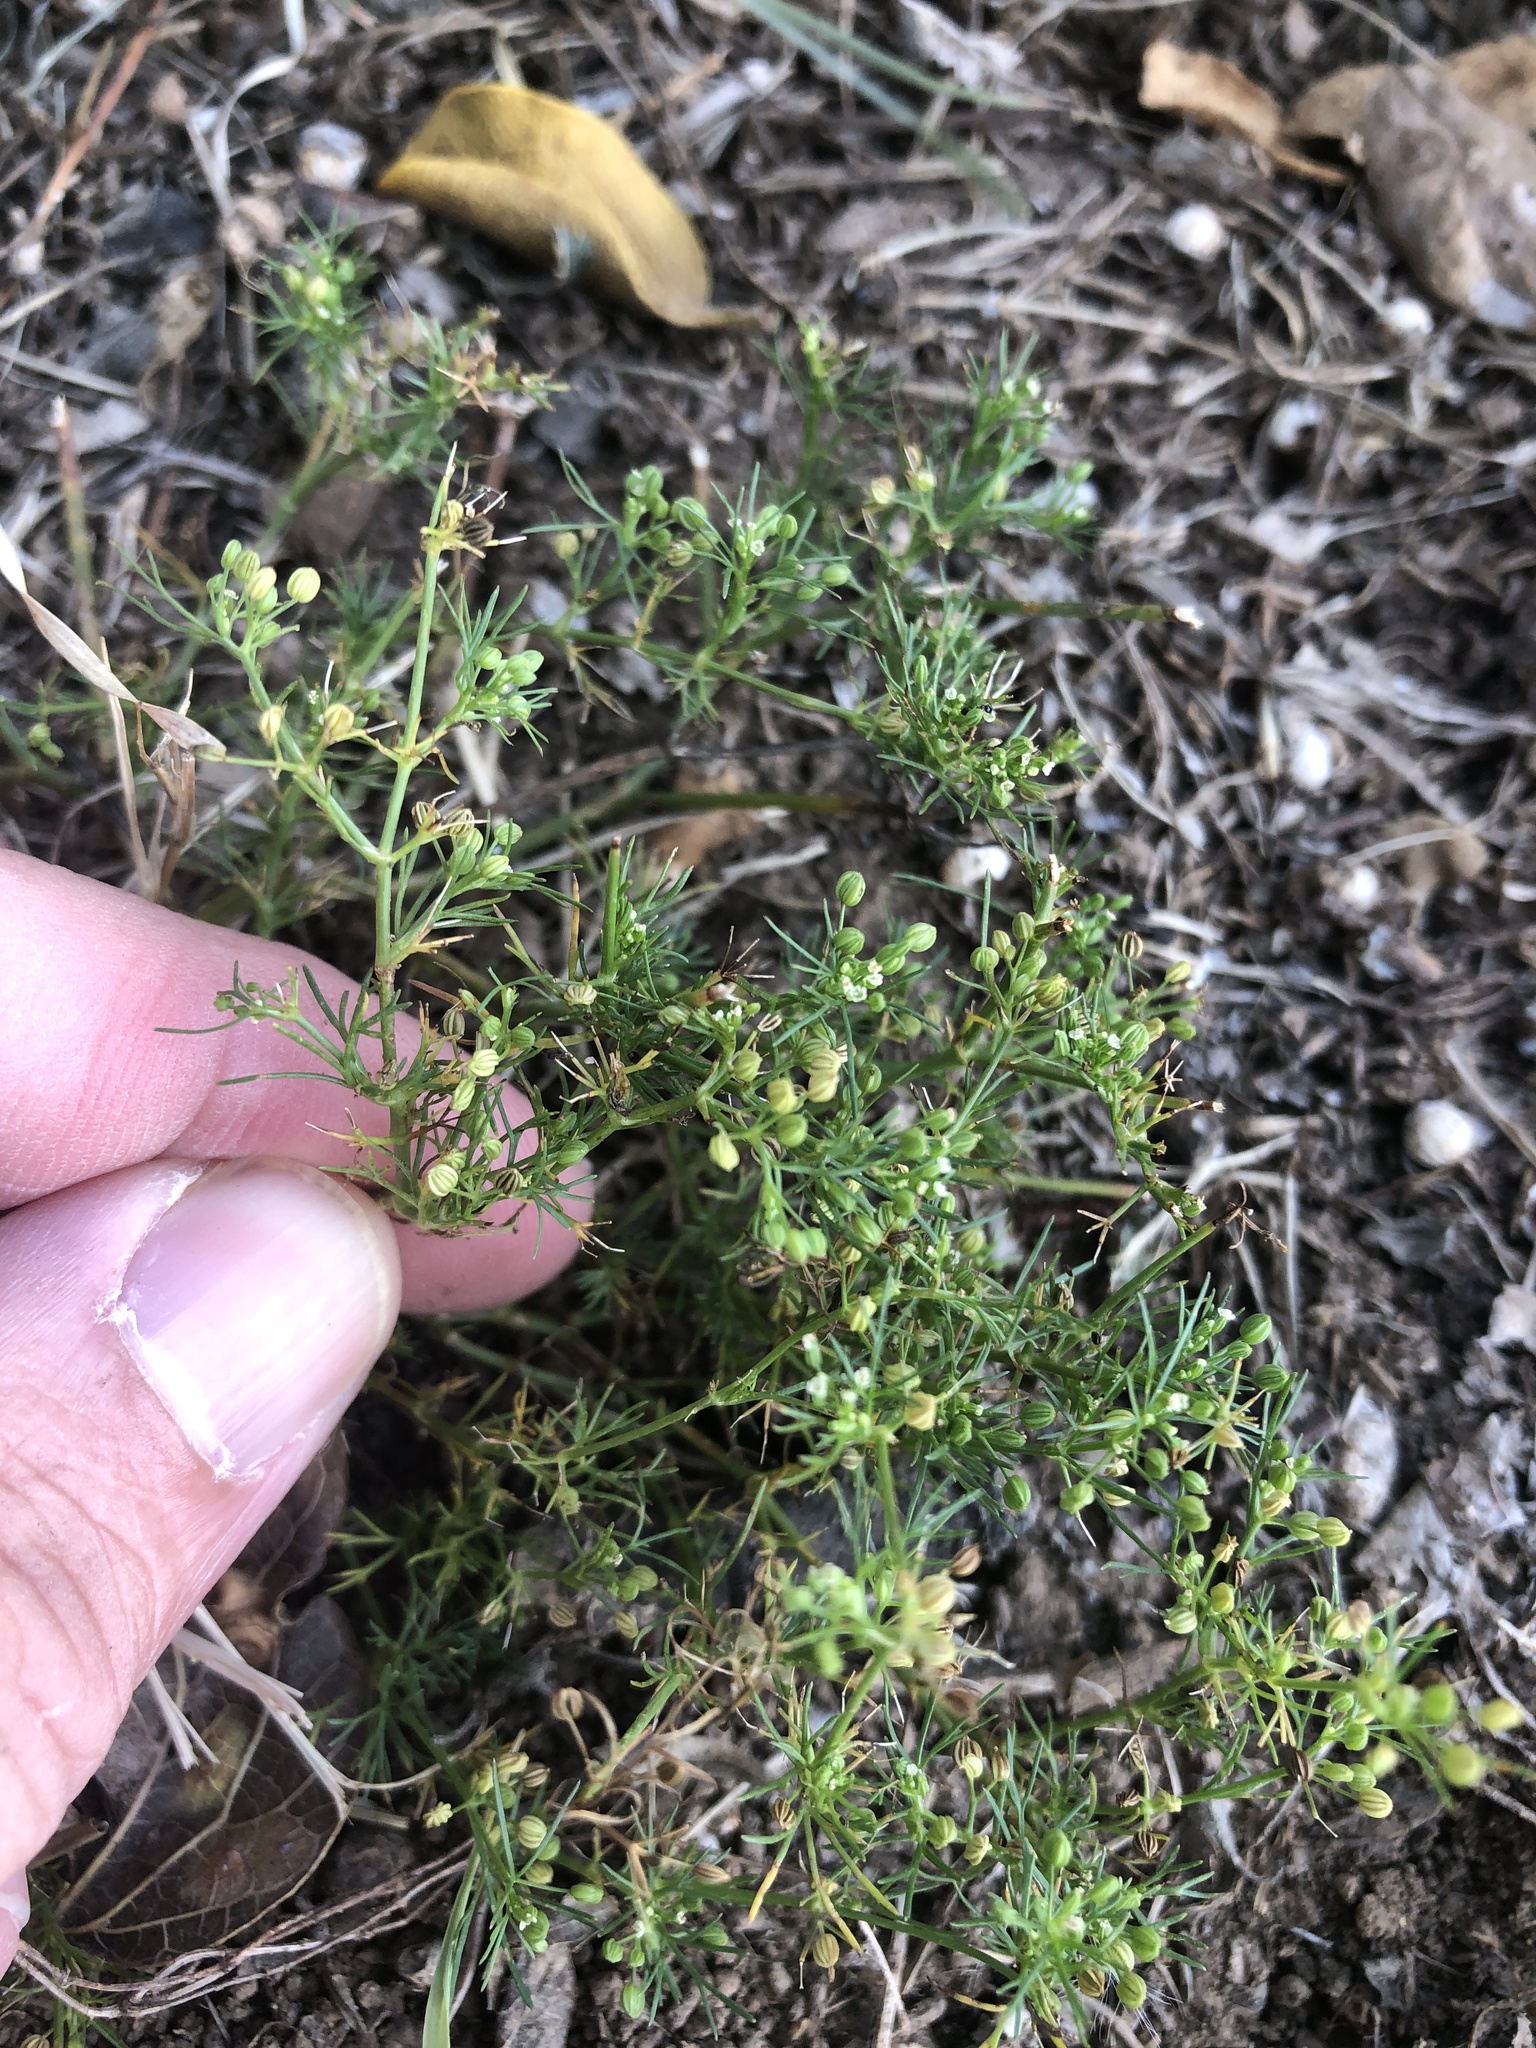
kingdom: Plantae
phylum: Tracheophyta
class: Magnoliopsida
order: Apiales
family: Apiaceae
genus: Cyclospermum
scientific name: Cyclospermum leptophyllum
